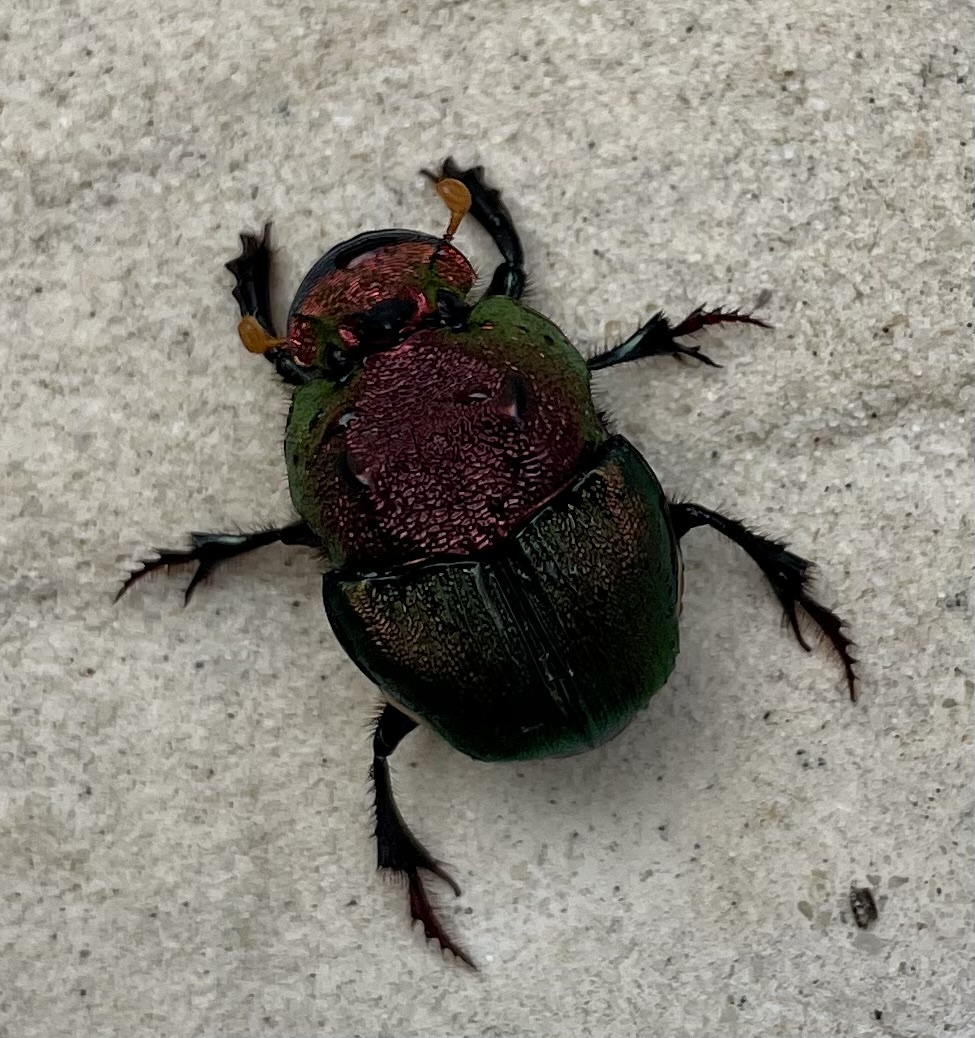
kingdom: Animalia
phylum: Arthropoda
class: Insecta
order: Coleoptera
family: Scarabaeidae
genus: Phanaeus
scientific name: Phanaeus vindex
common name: Rainbow scarab
